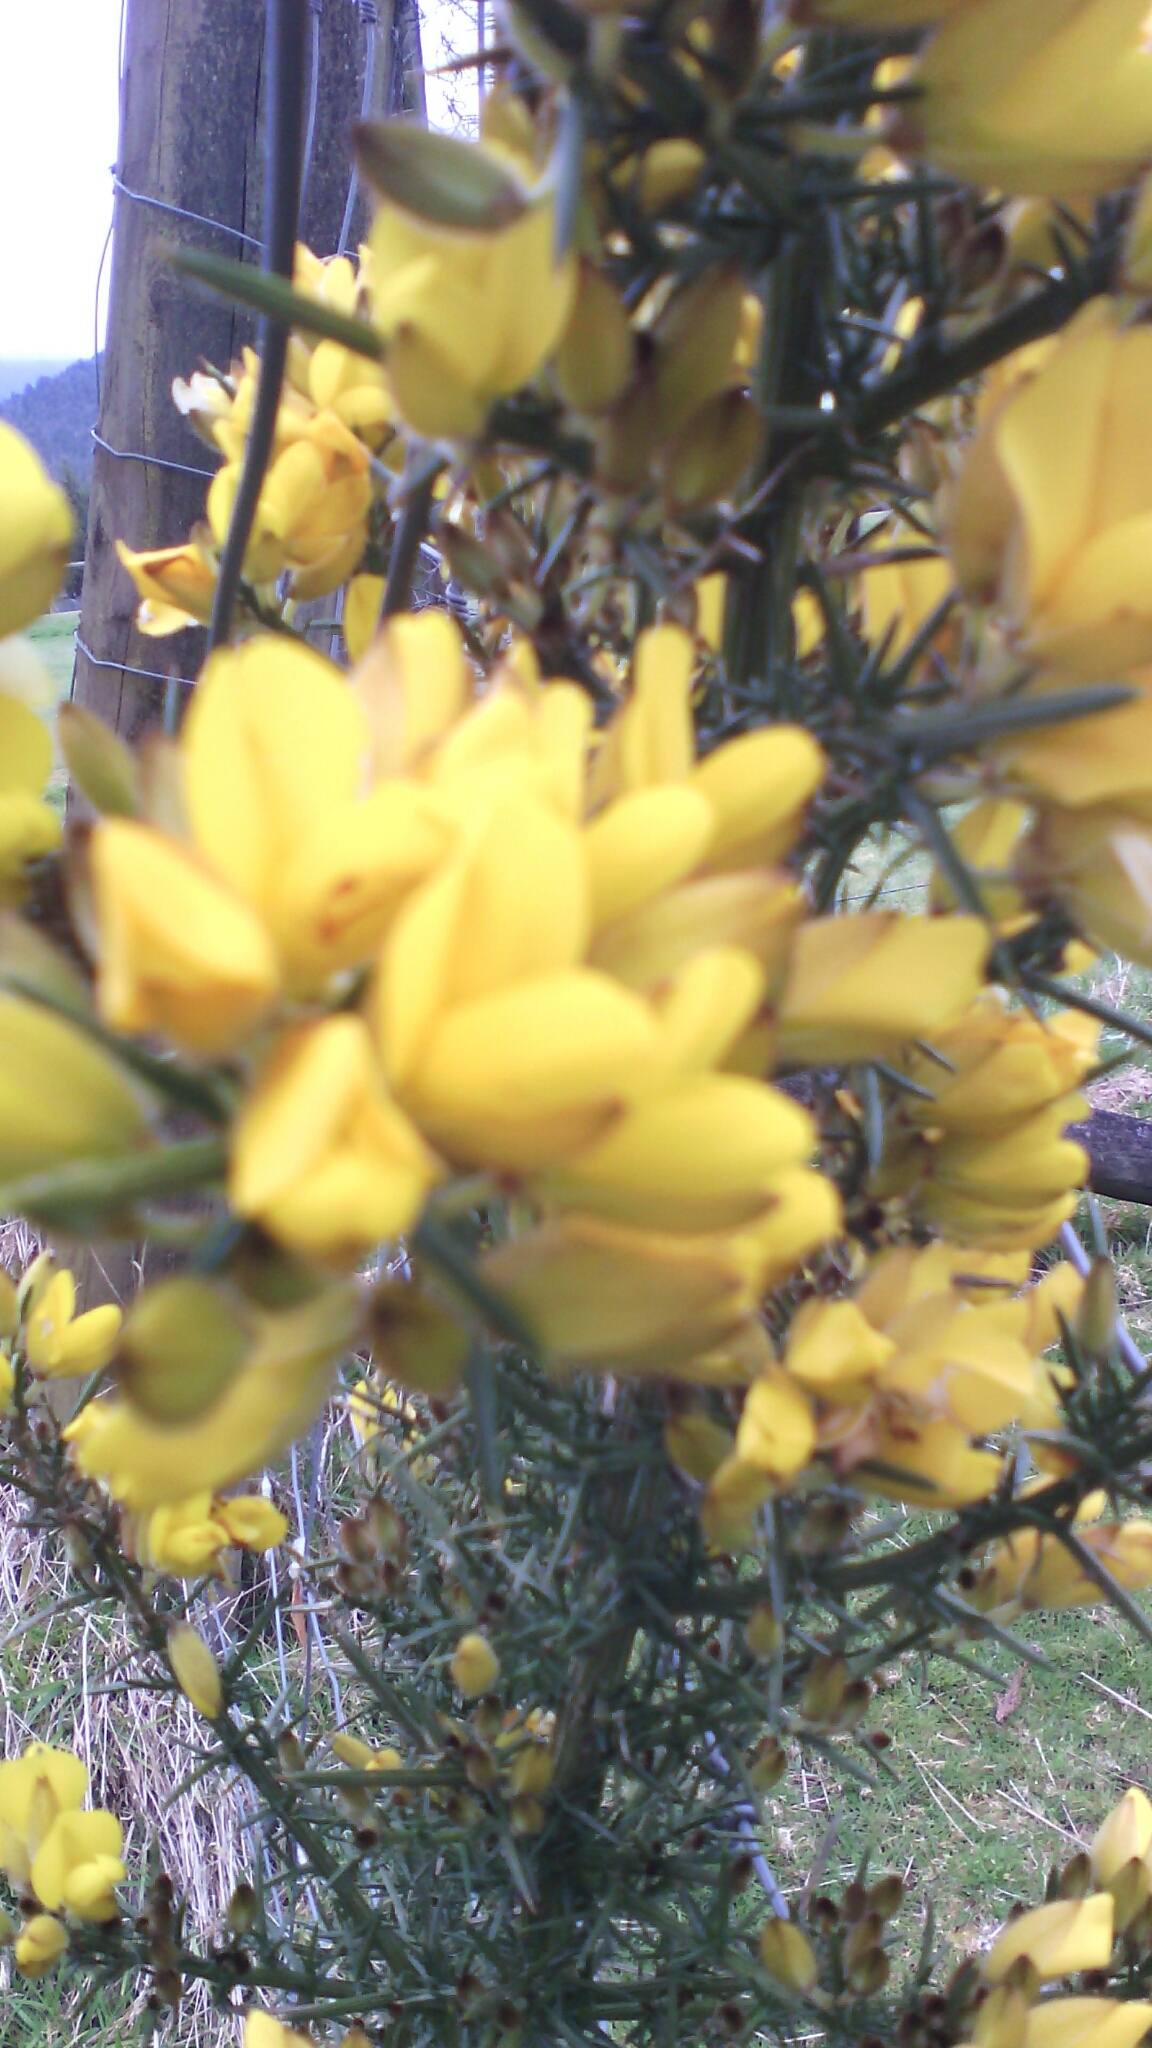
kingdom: Plantae
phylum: Tracheophyta
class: Magnoliopsida
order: Fabales
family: Fabaceae
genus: Ulex
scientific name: Ulex europaeus
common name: Common gorse
